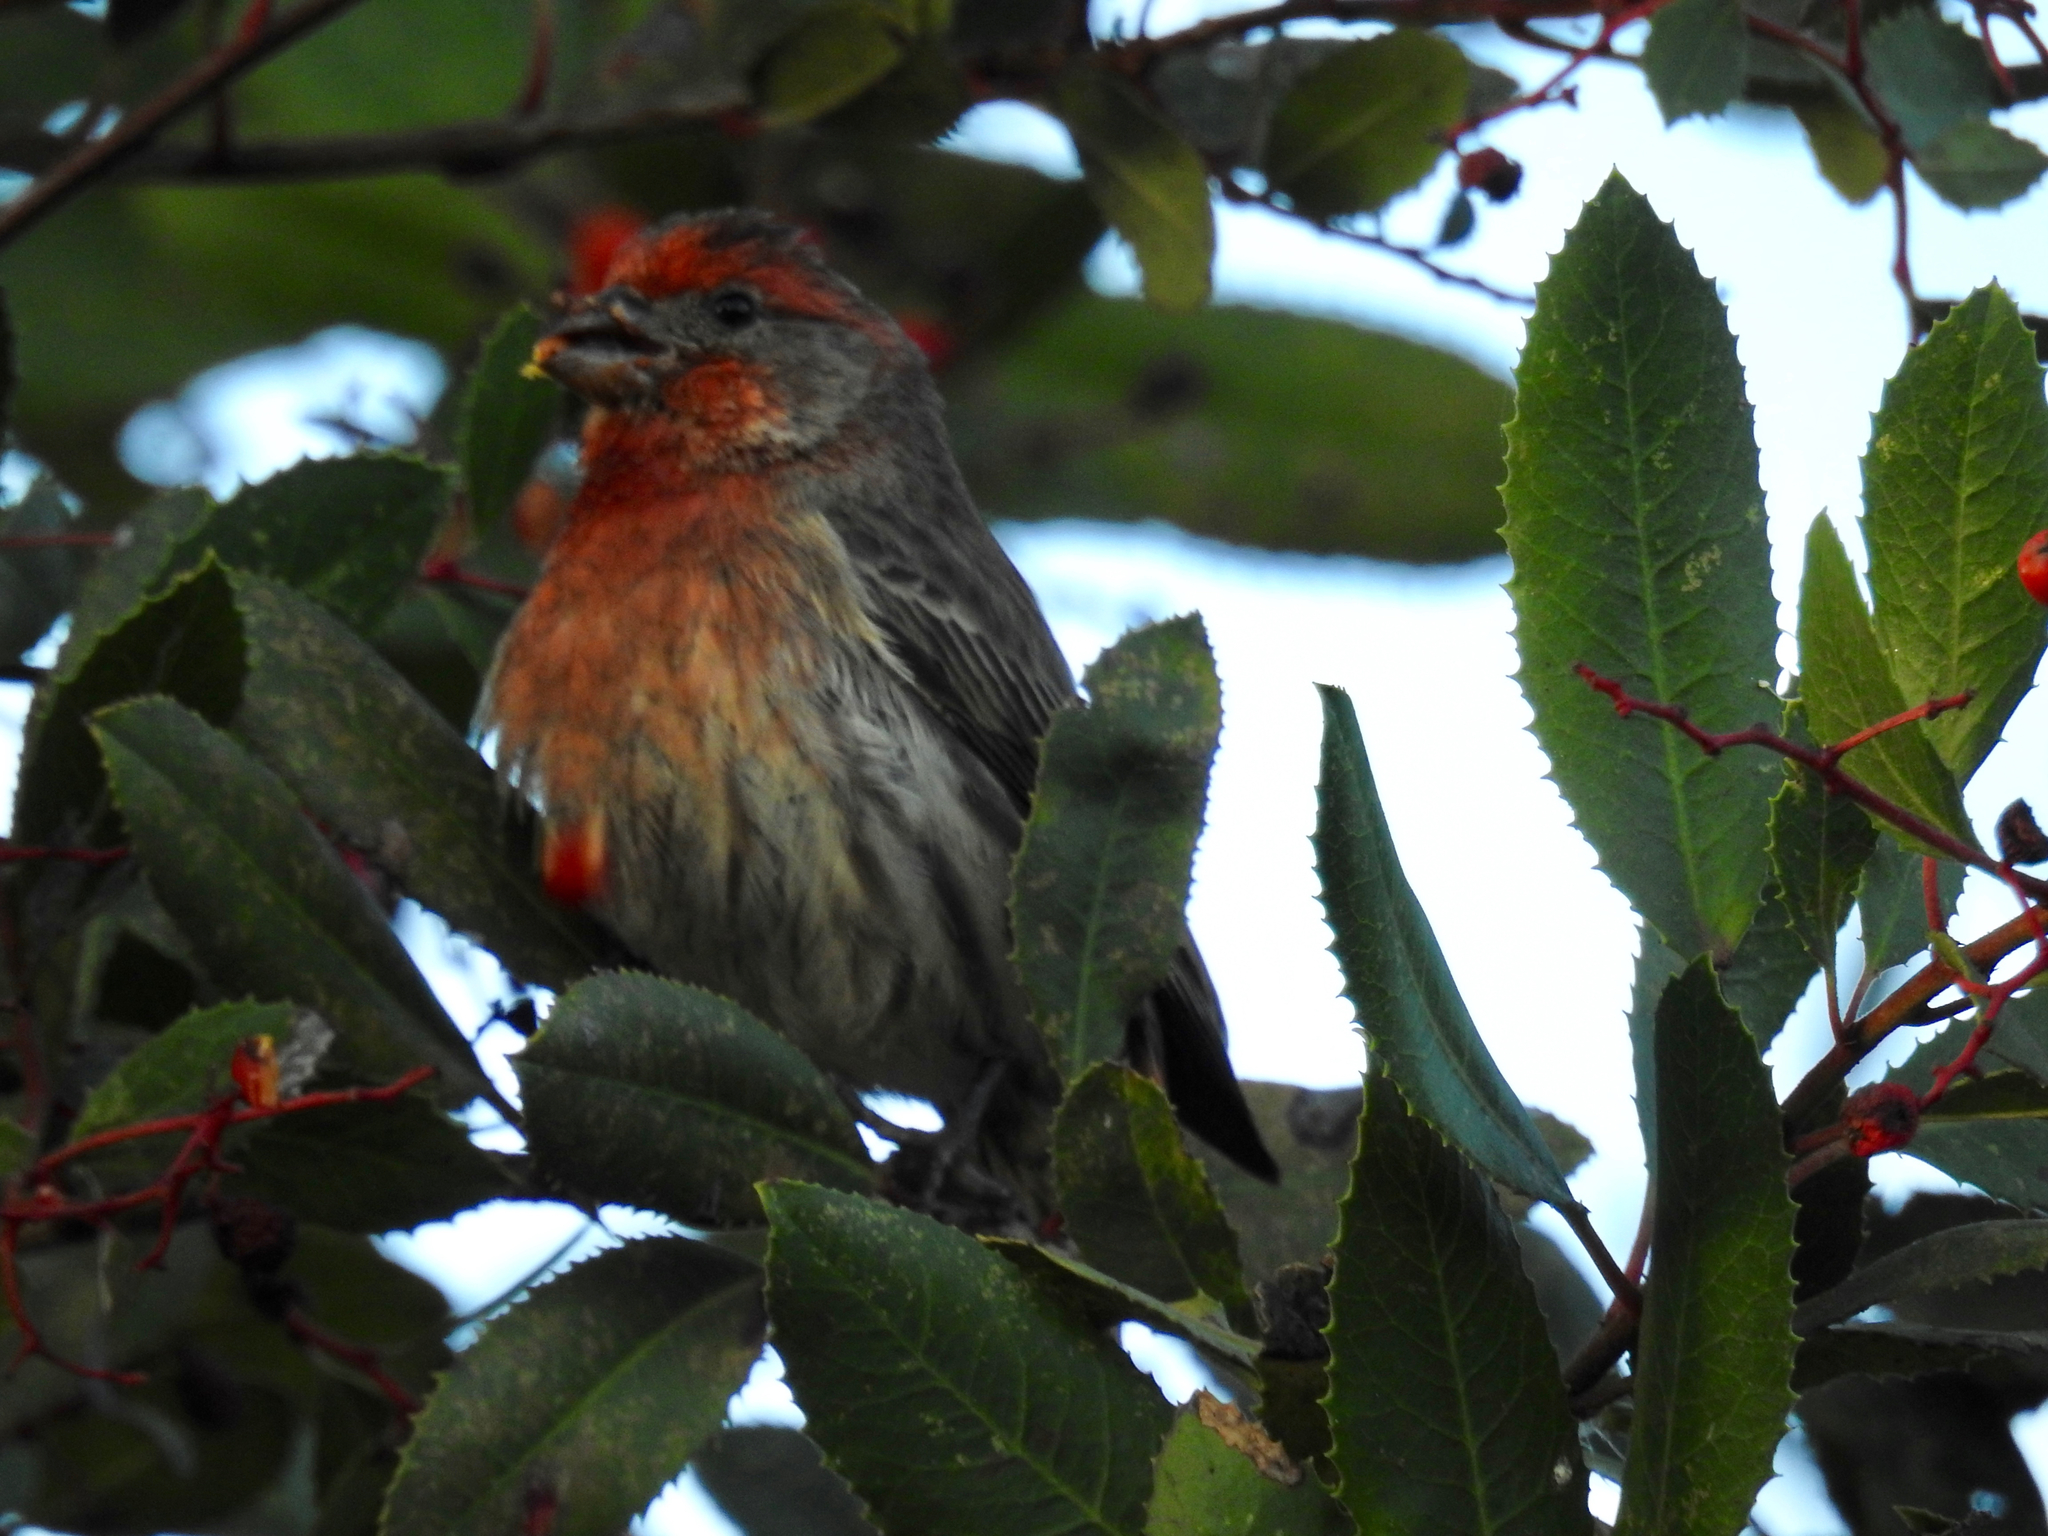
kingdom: Animalia
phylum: Chordata
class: Aves
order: Passeriformes
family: Fringillidae
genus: Haemorhous
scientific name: Haemorhous mexicanus
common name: House finch
